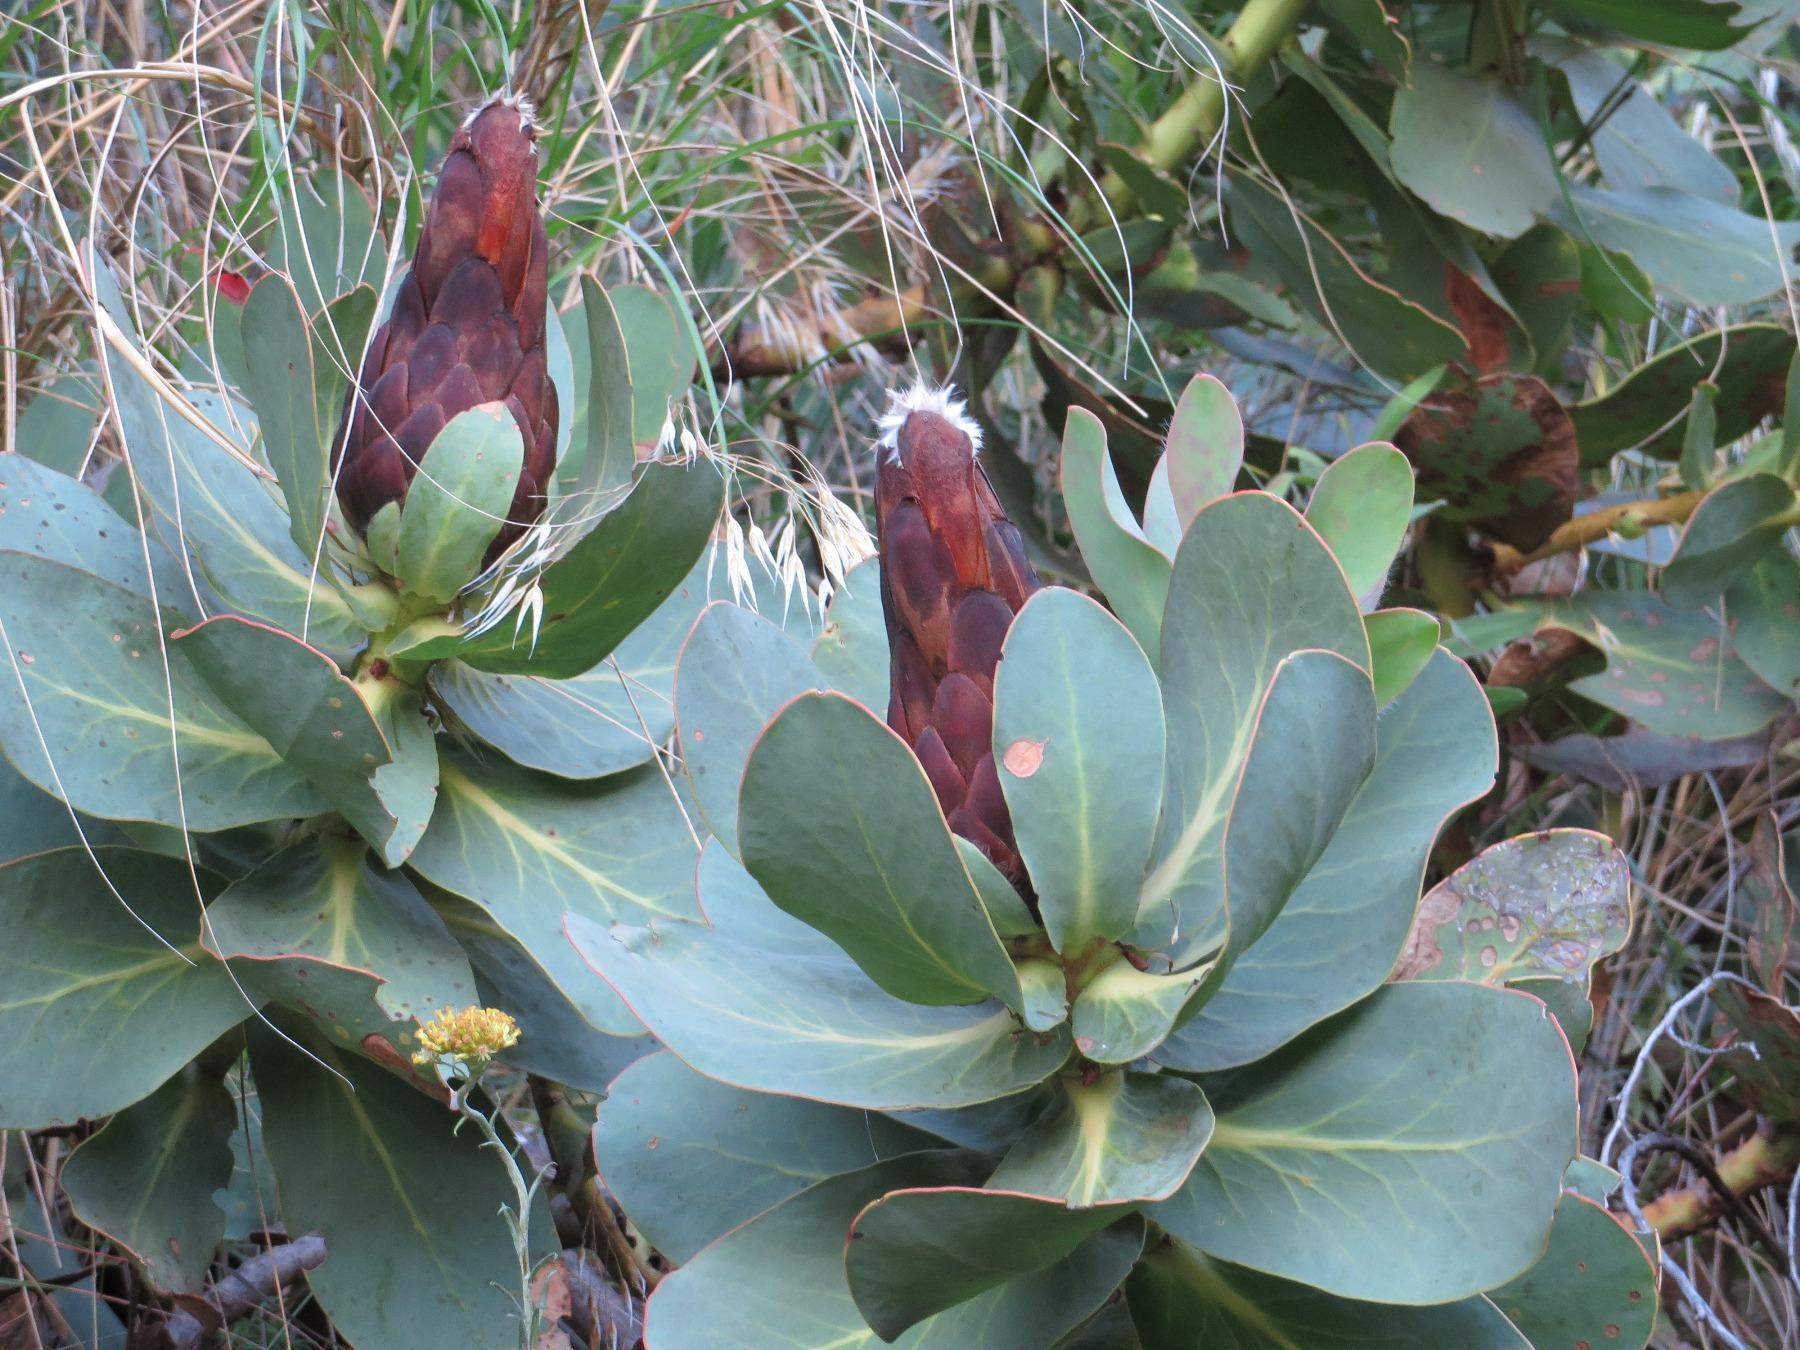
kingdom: Plantae
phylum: Tracheophyta
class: Magnoliopsida
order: Proteales
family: Proteaceae
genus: Protea
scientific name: Protea grandiceps
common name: Red sugarbush
